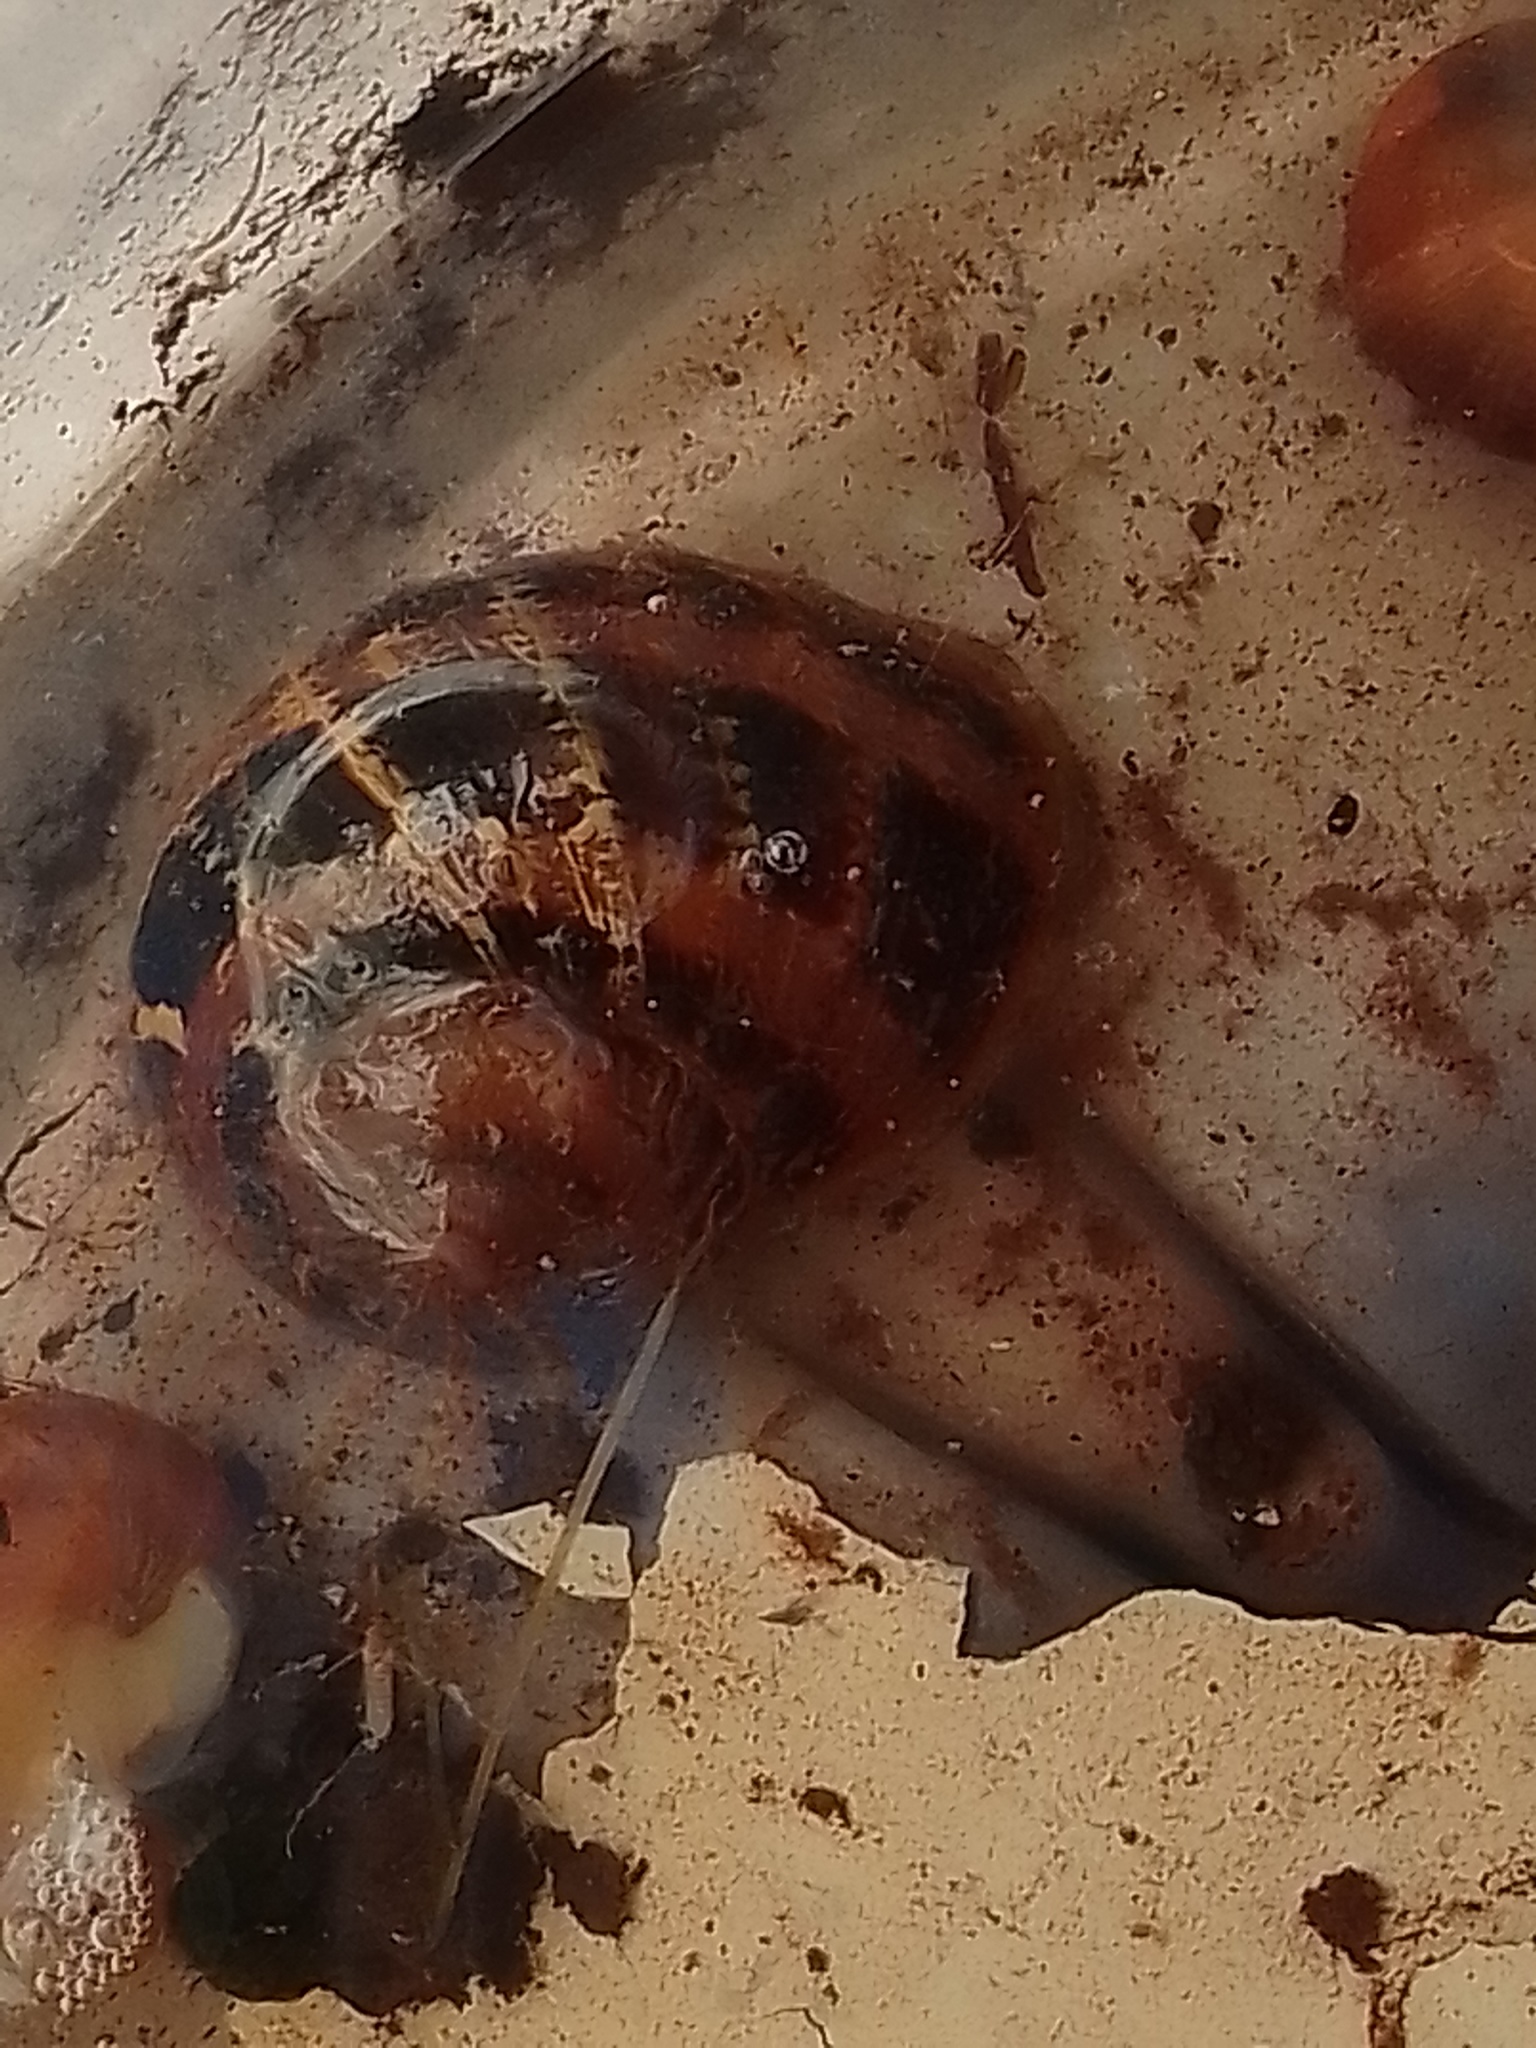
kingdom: Animalia
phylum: Mollusca
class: Gastropoda
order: Stylommatophora
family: Helicidae
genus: Cornu
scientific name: Cornu aspersum
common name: Brown garden snail
